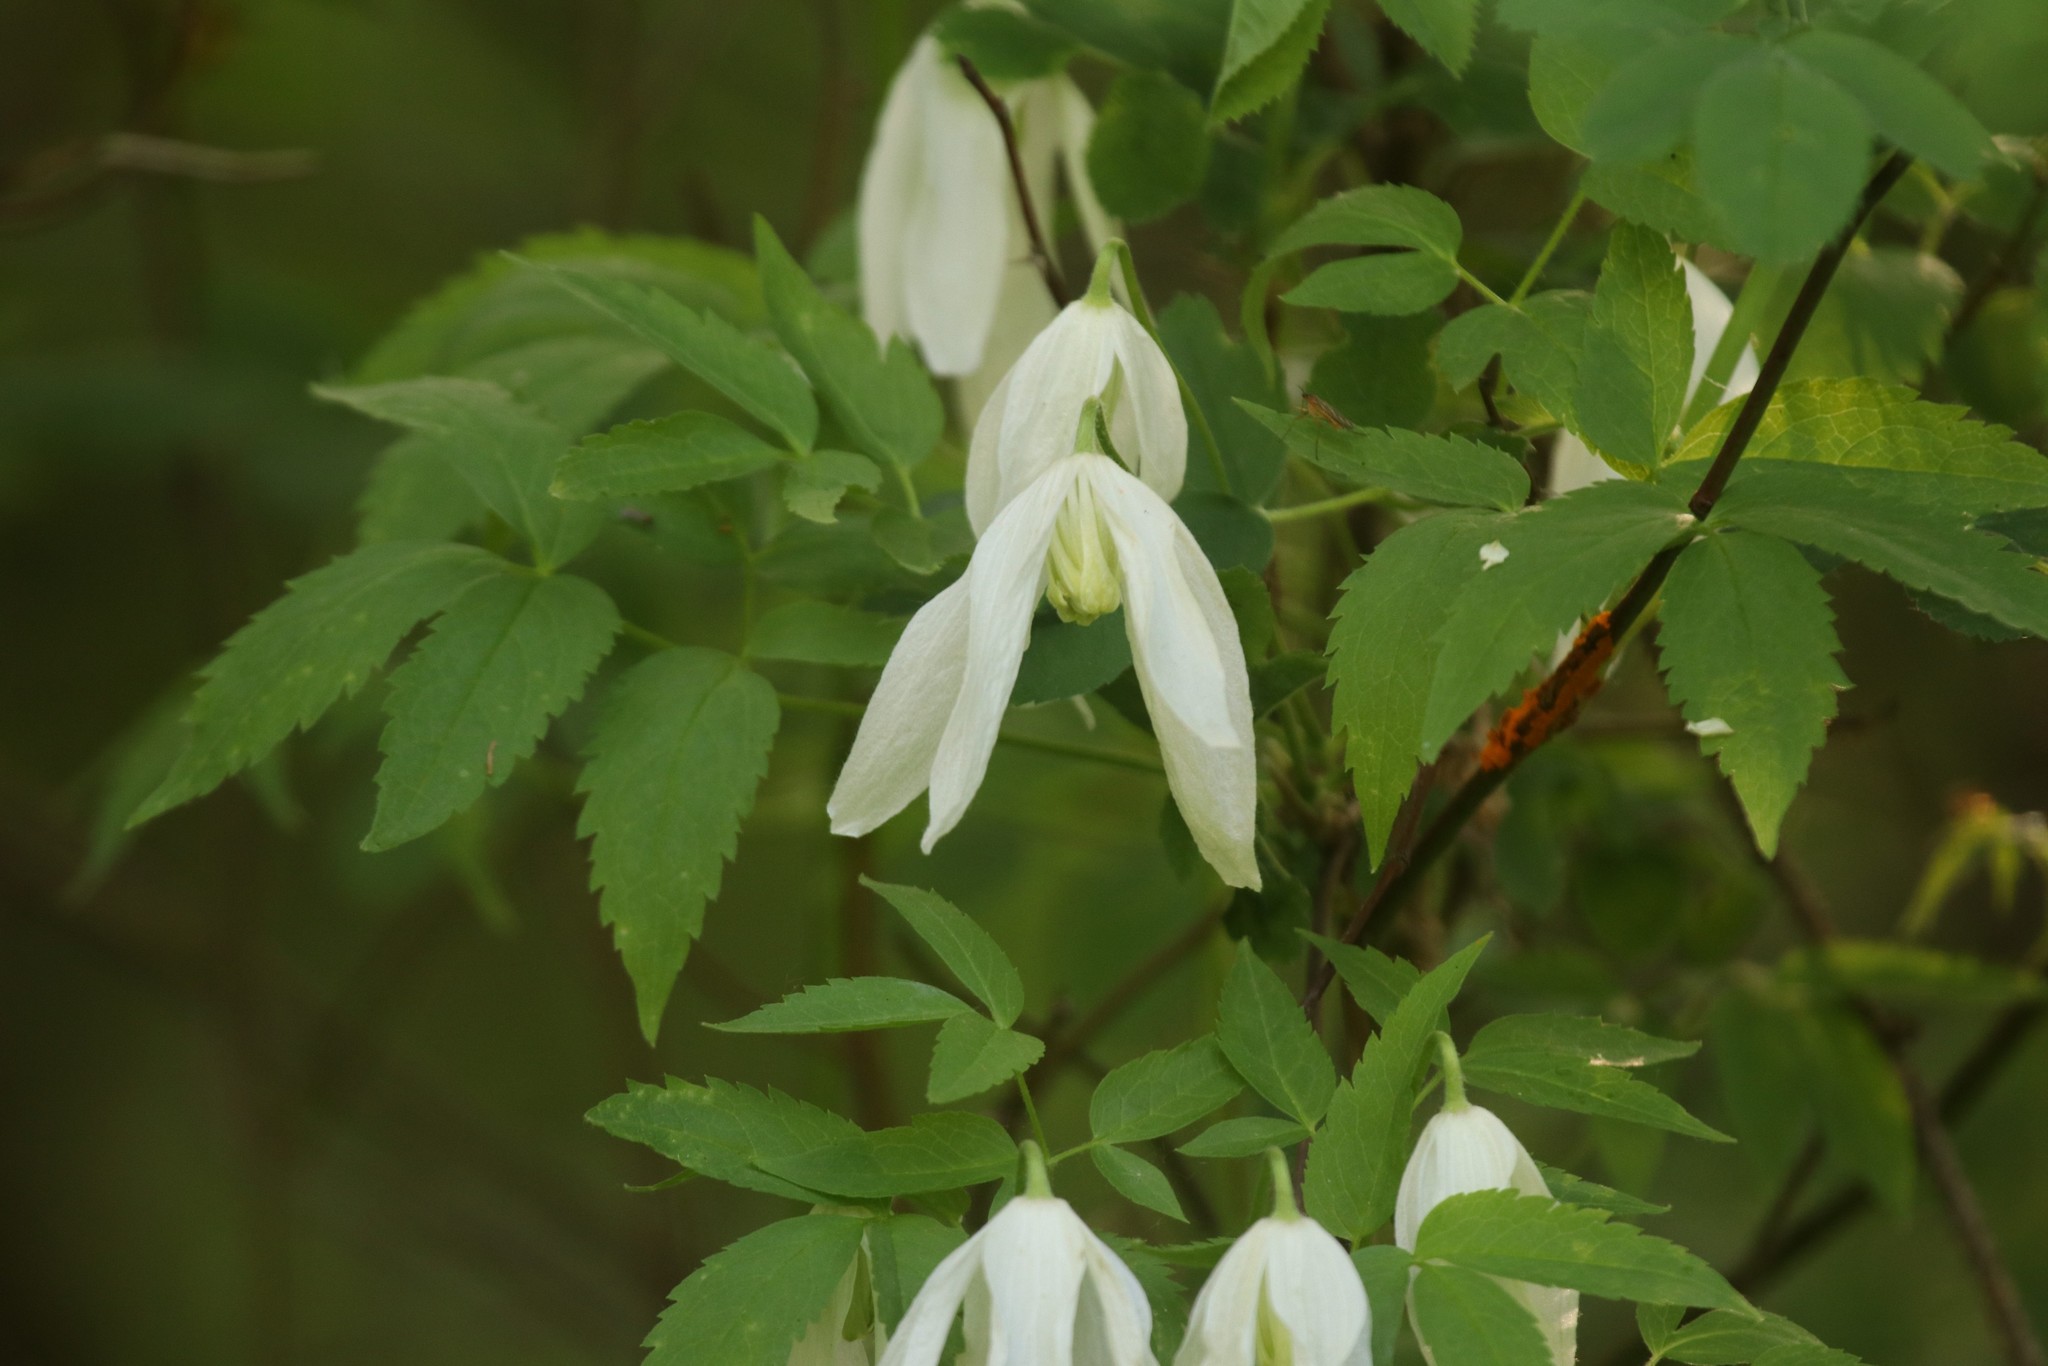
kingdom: Plantae
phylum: Tracheophyta
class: Magnoliopsida
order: Ranunculales
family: Ranunculaceae
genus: Clematis
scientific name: Clematis sibirica
